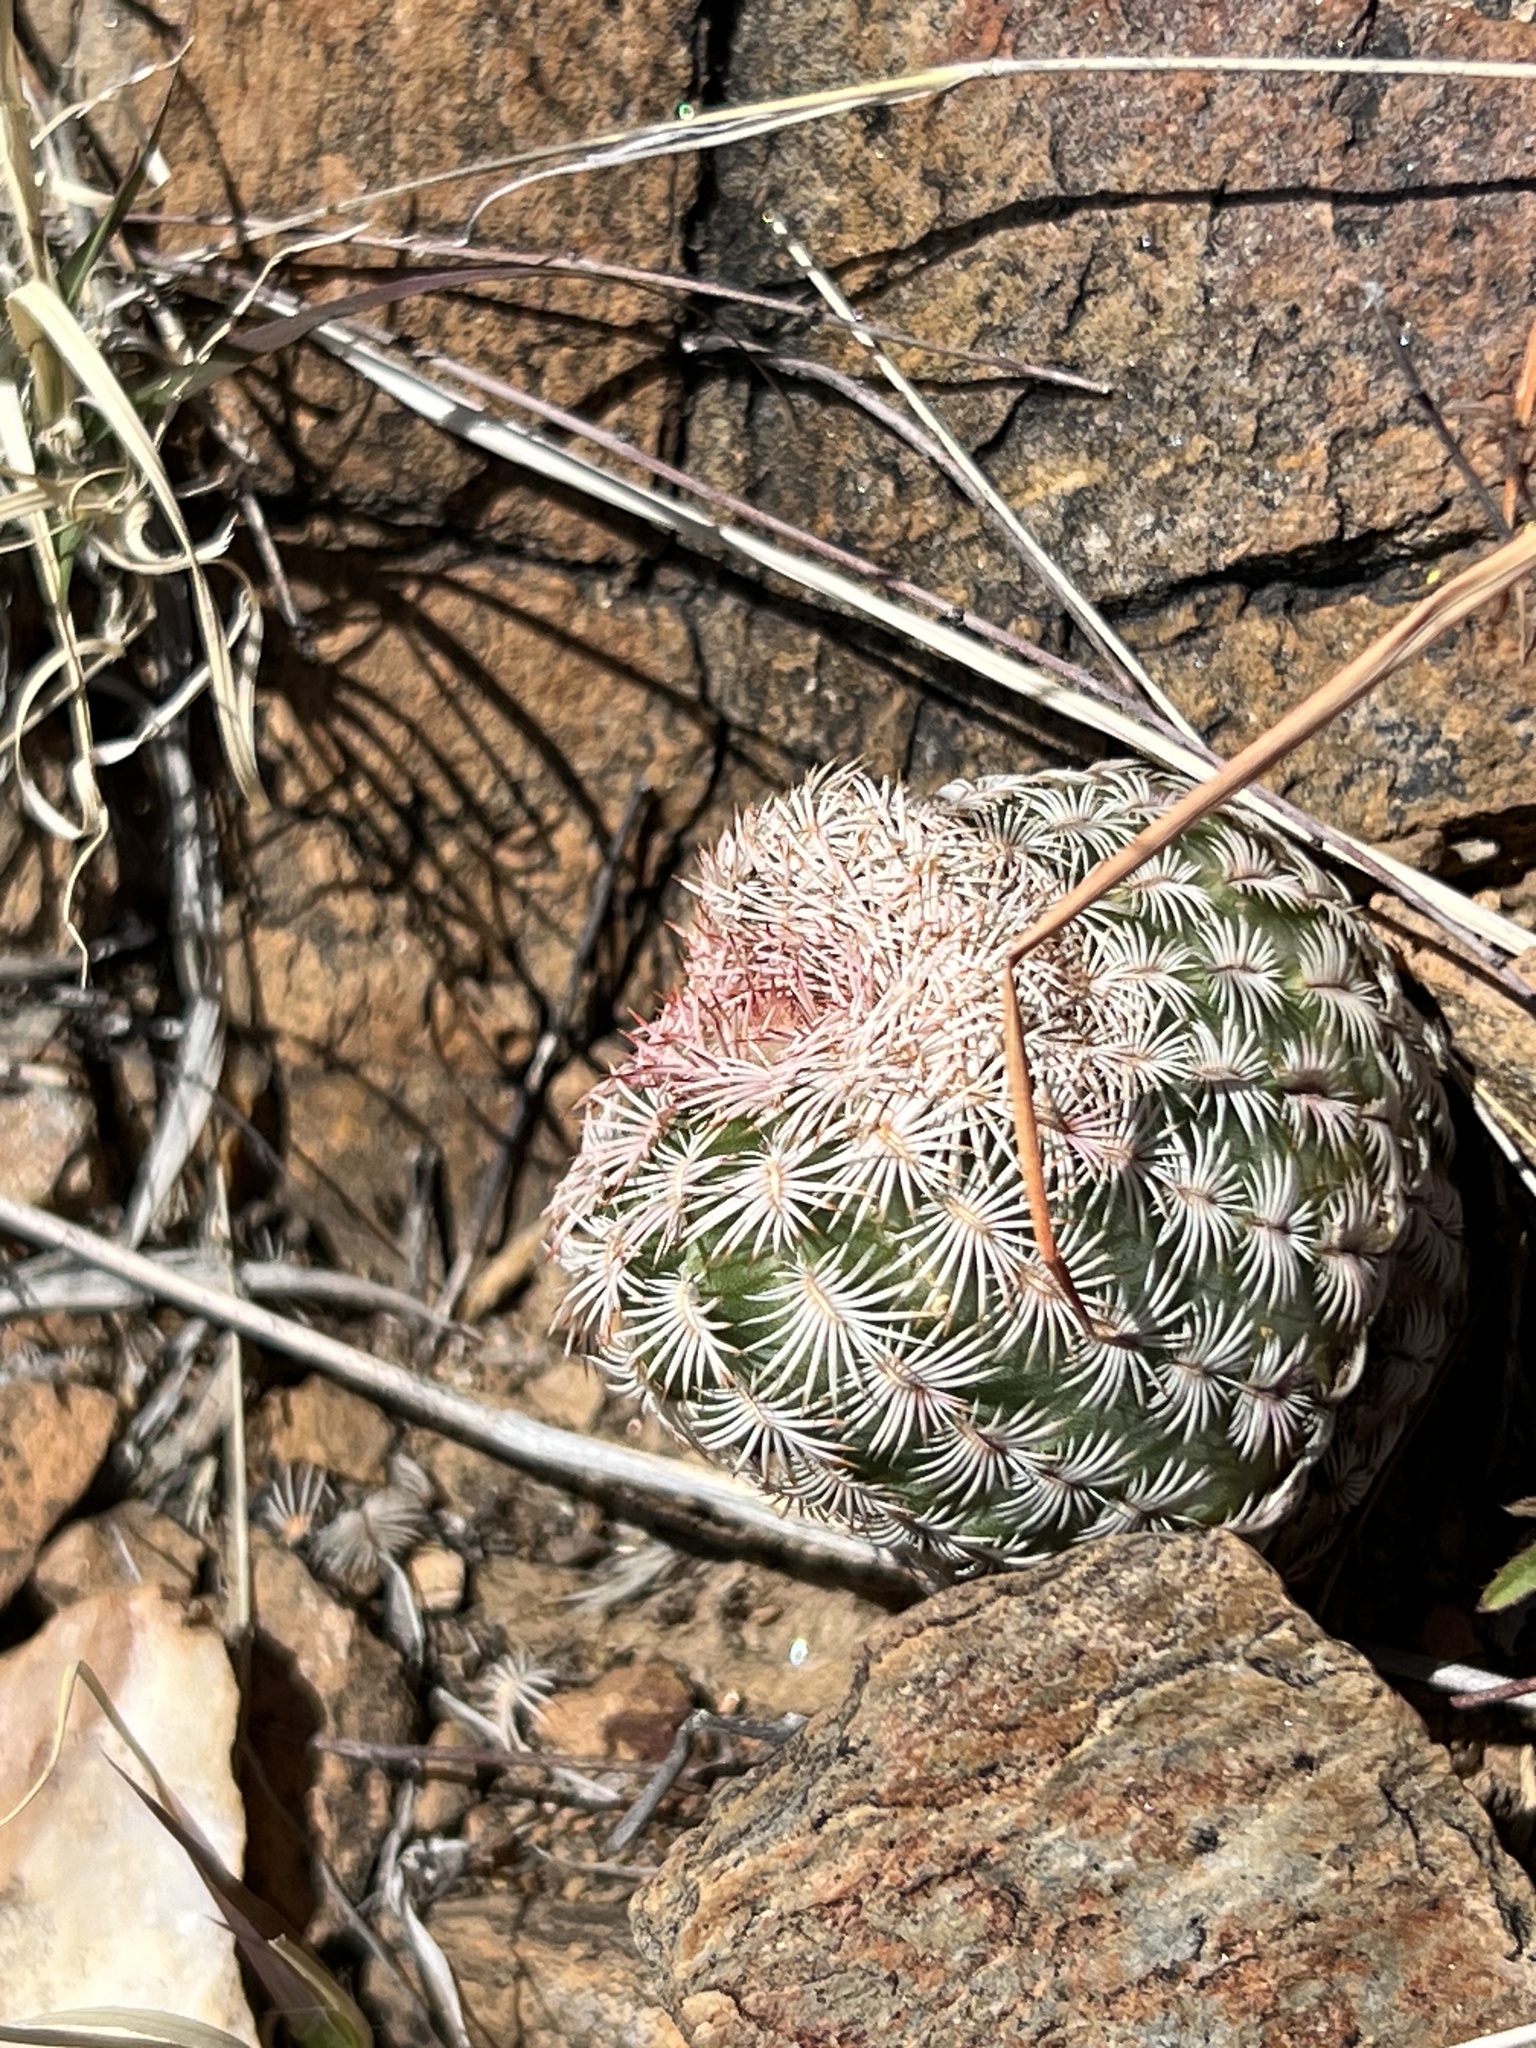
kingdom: Plantae
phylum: Tracheophyta
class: Magnoliopsida
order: Caryophyllales
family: Cactaceae
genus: Echinocereus
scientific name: Echinocereus rigidissimus
